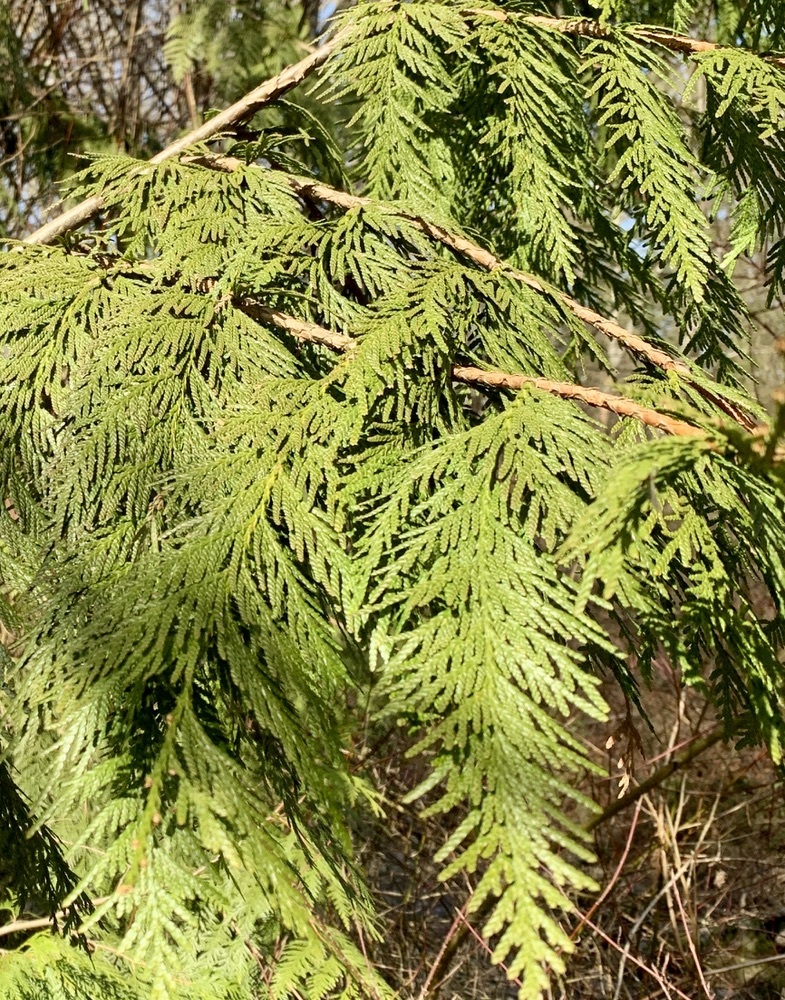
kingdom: Plantae
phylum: Tracheophyta
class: Pinopsida
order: Pinales
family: Cupressaceae
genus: Thuja
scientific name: Thuja plicata
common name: Western red-cedar
